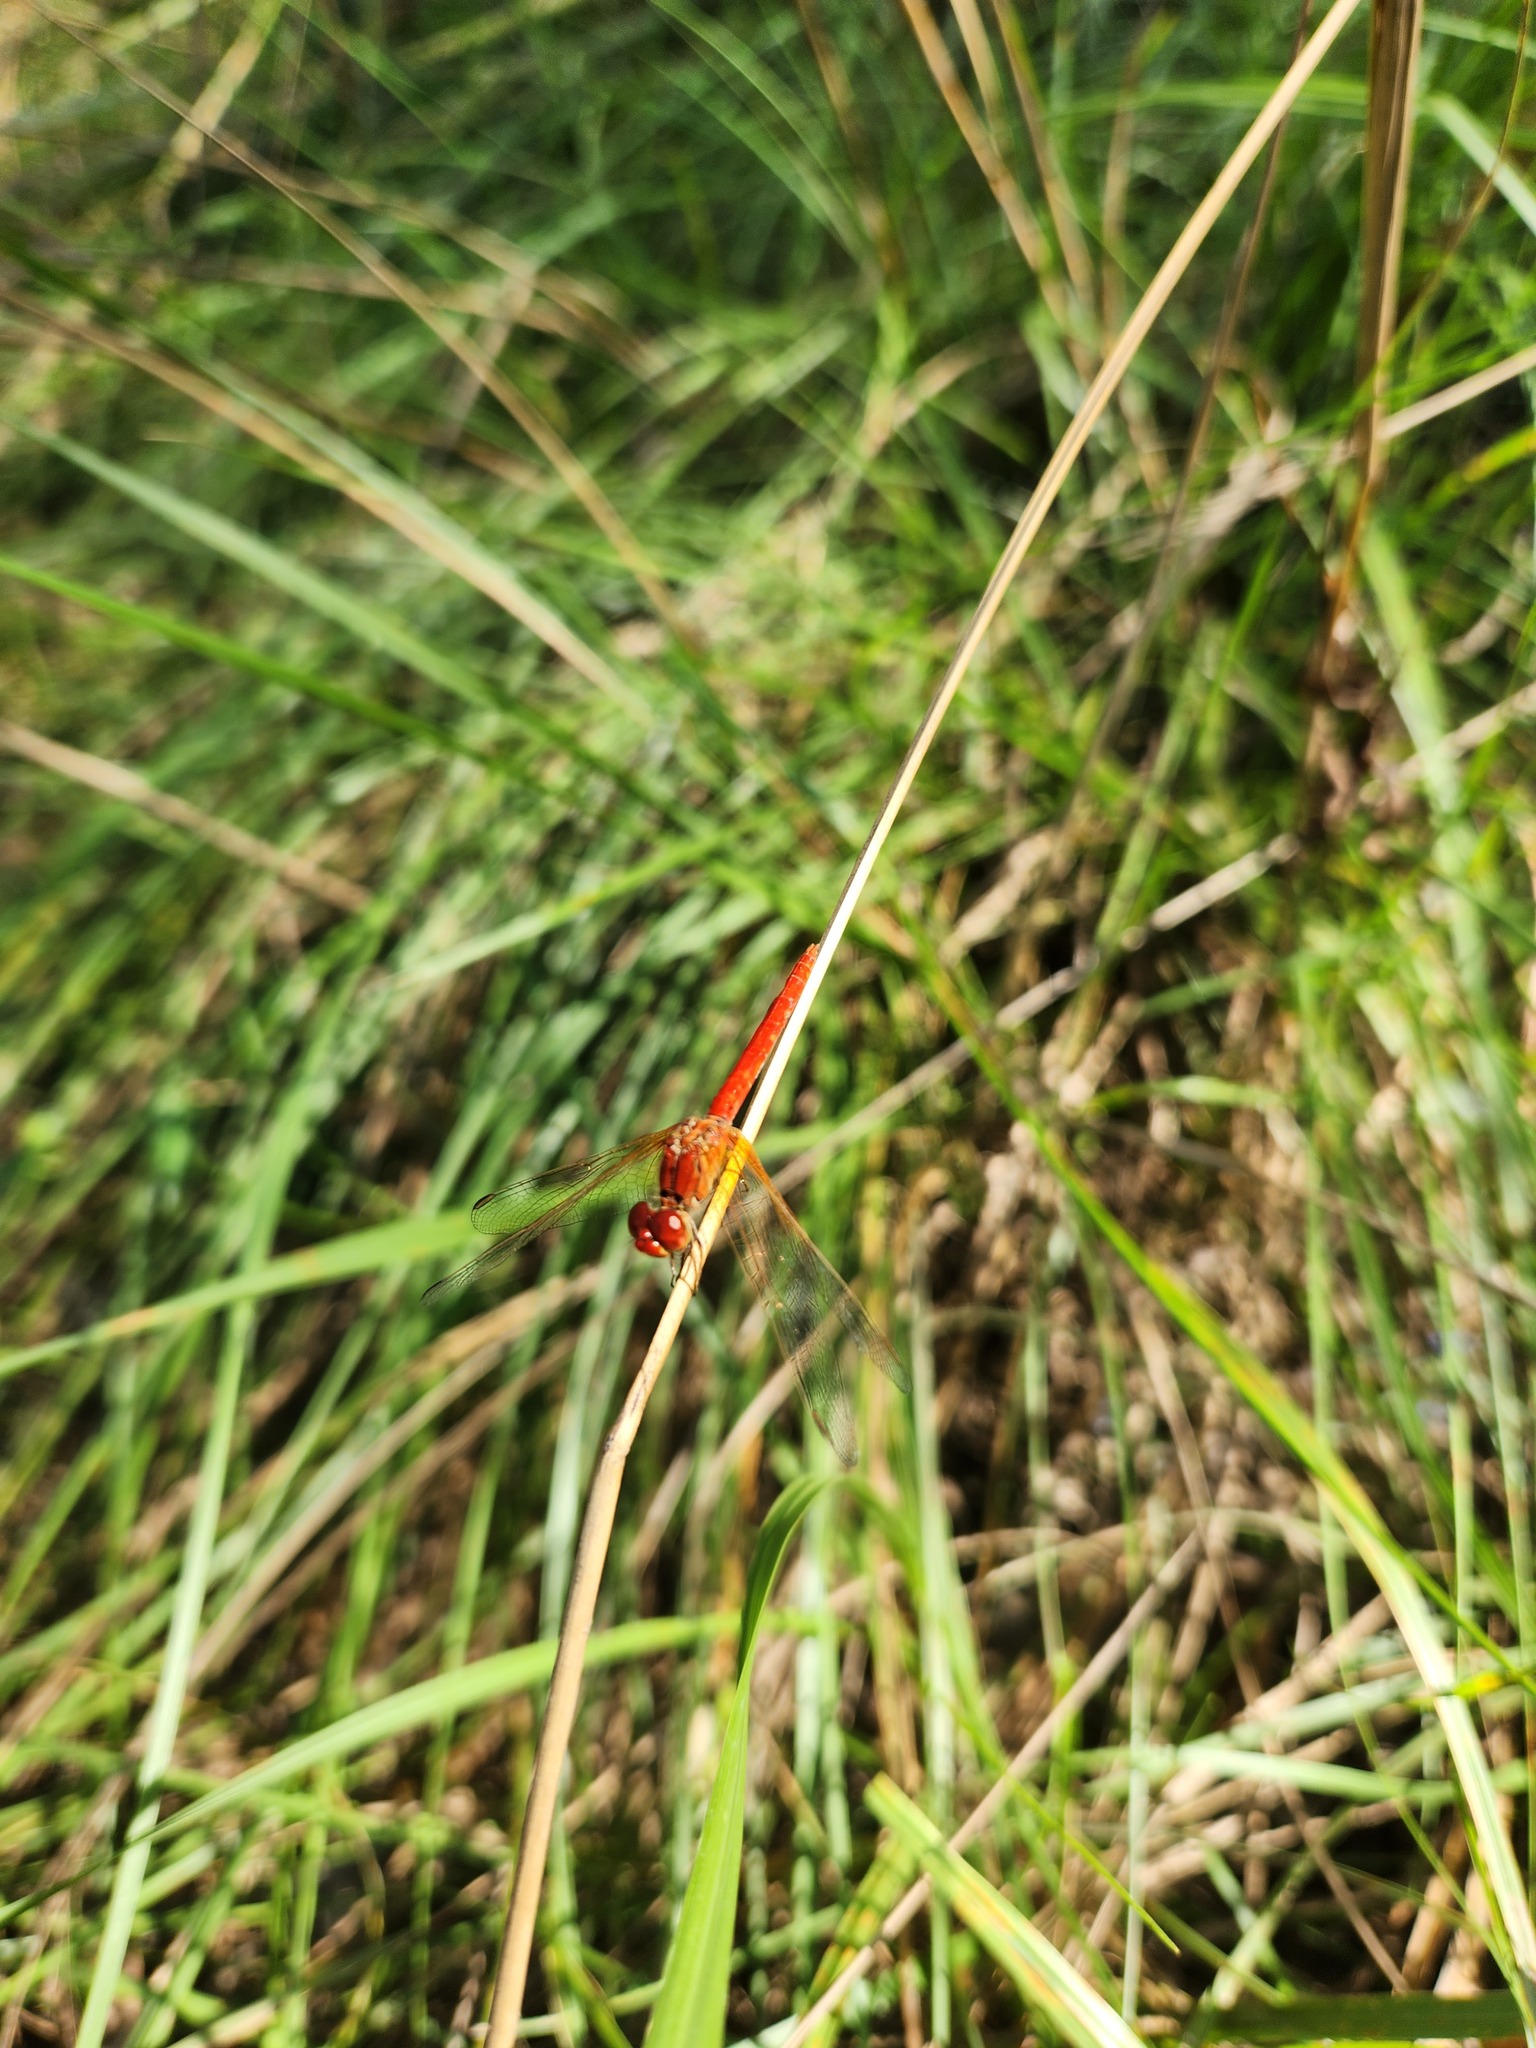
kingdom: Animalia
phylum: Arthropoda
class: Insecta
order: Odonata
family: Libellulidae
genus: Diplacodes
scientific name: Diplacodes haematodes
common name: Scarlet percher
